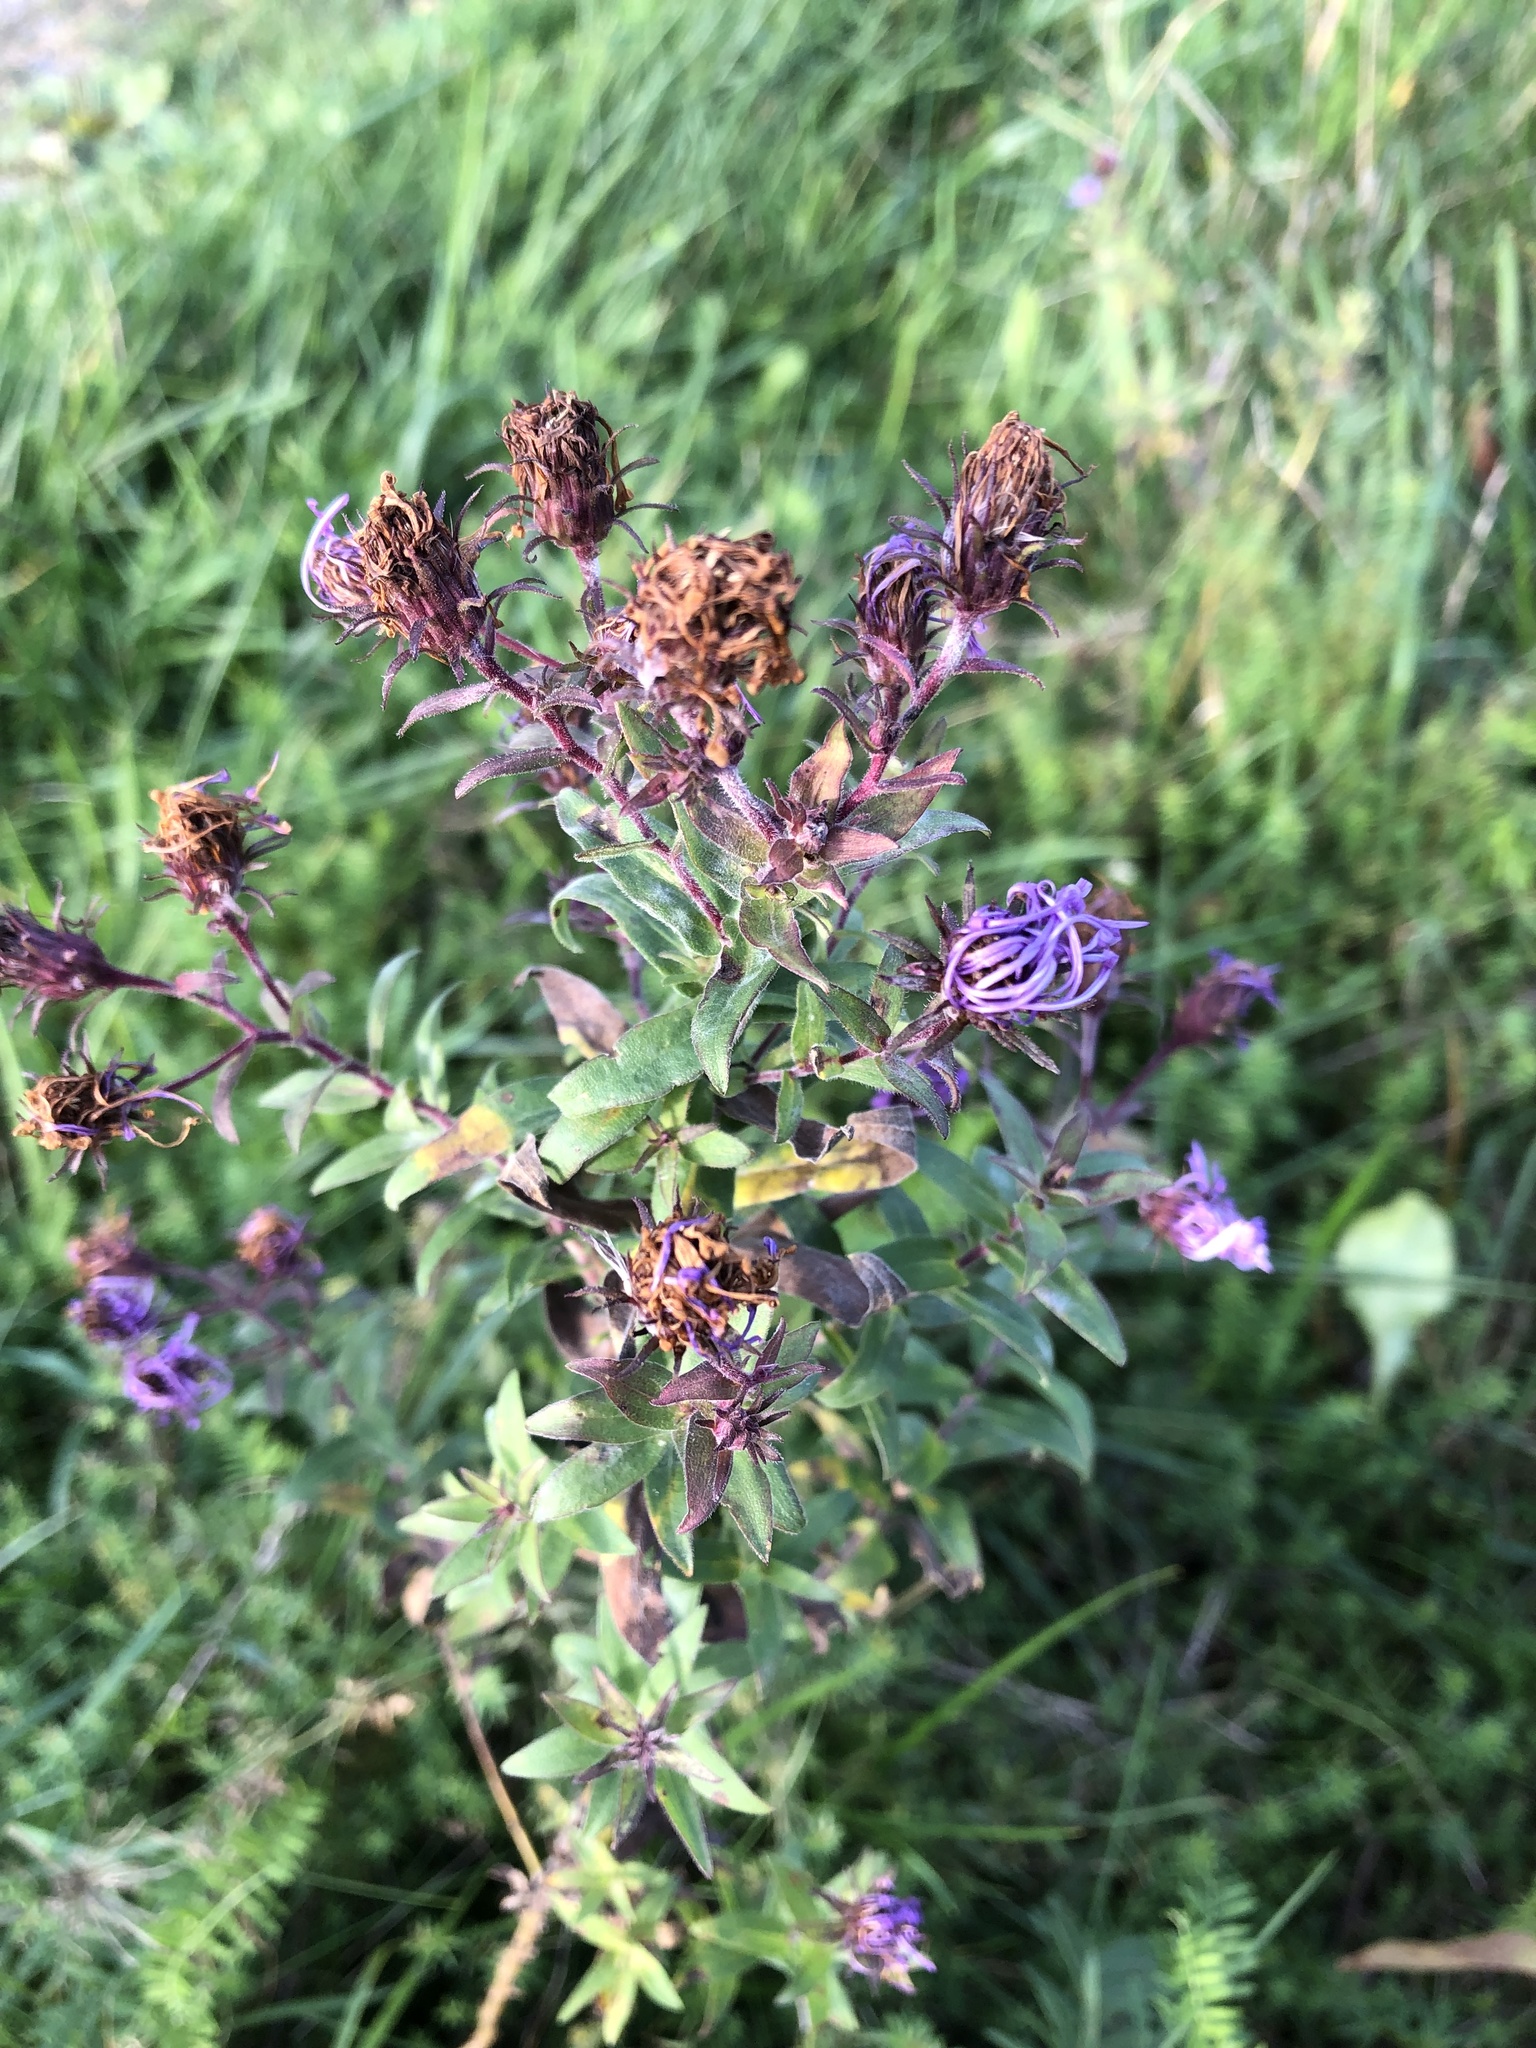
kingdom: Plantae
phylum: Tracheophyta
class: Magnoliopsida
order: Asterales
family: Asteraceae
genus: Symphyotrichum
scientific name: Symphyotrichum novae-angliae
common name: Michaelmas daisy
